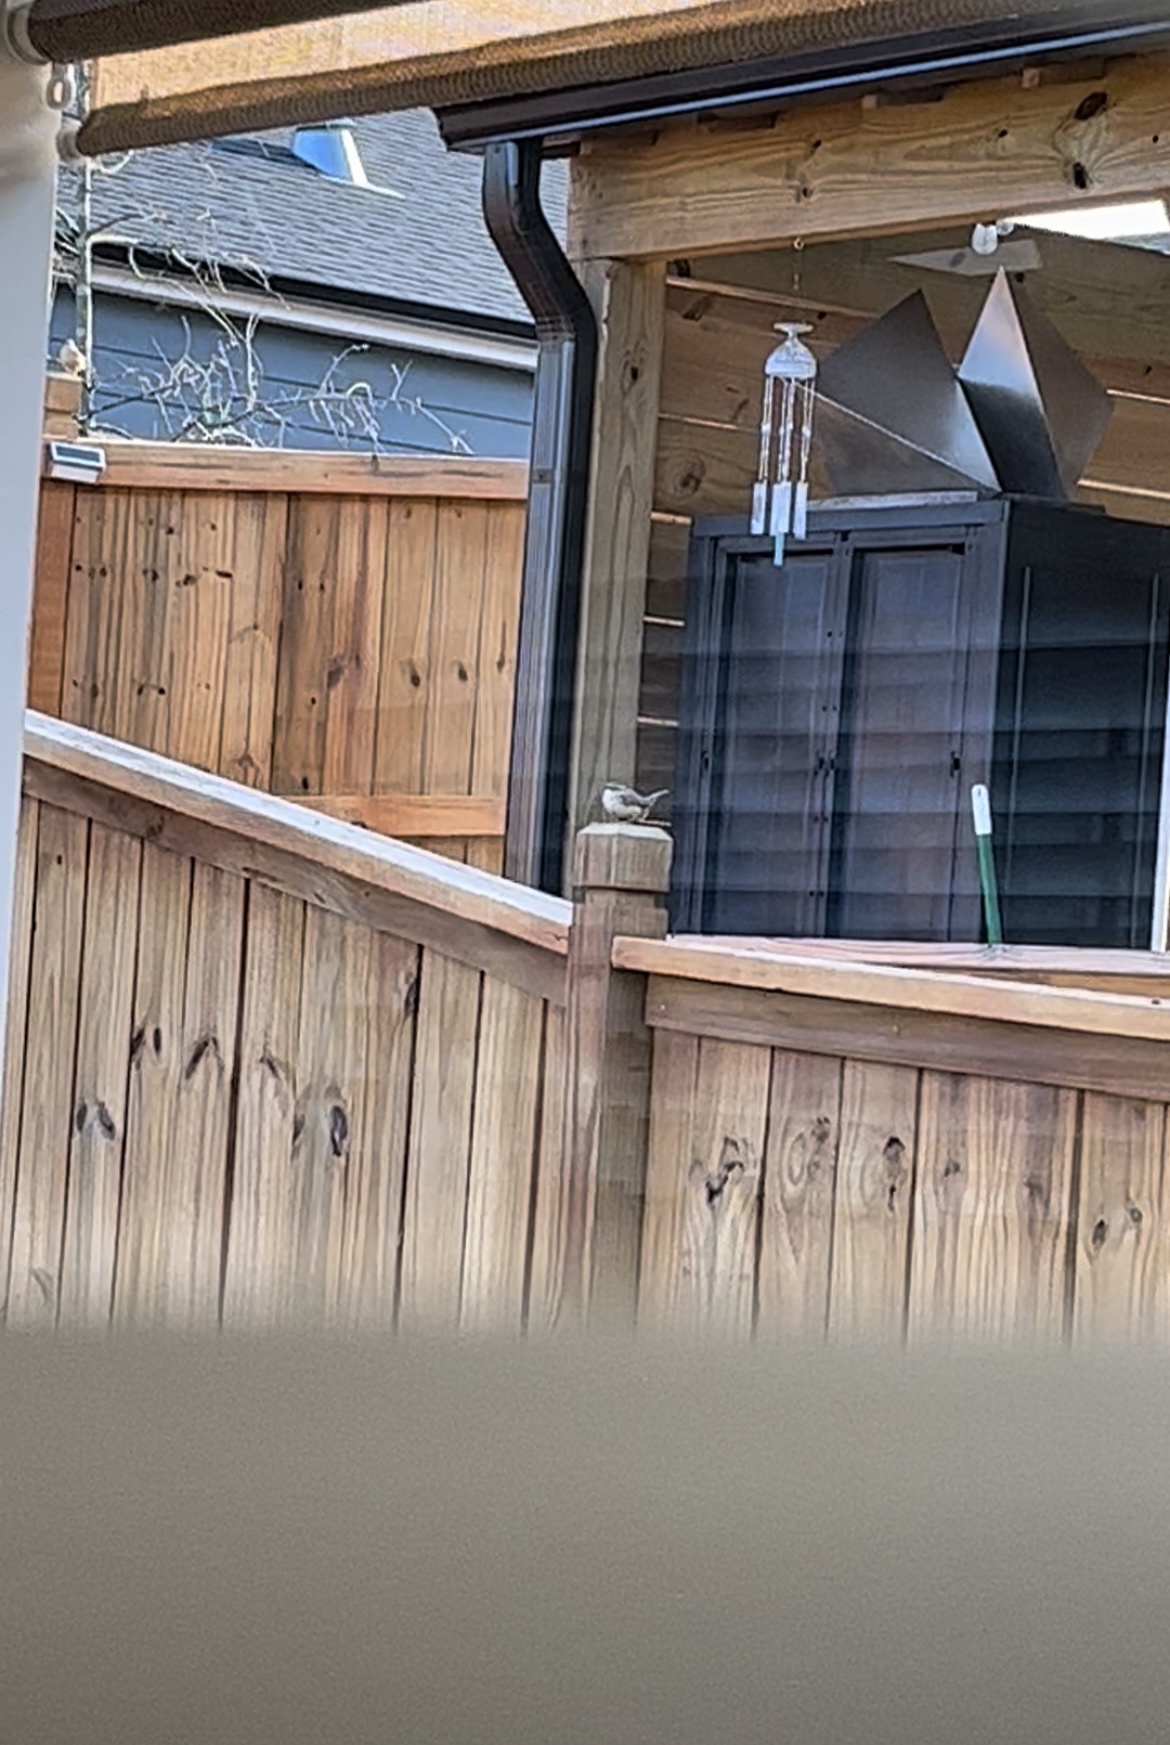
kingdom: Animalia
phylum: Chordata
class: Aves
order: Passeriformes
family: Troglodytidae
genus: Thryothorus
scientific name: Thryothorus ludovicianus
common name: Carolina wren
